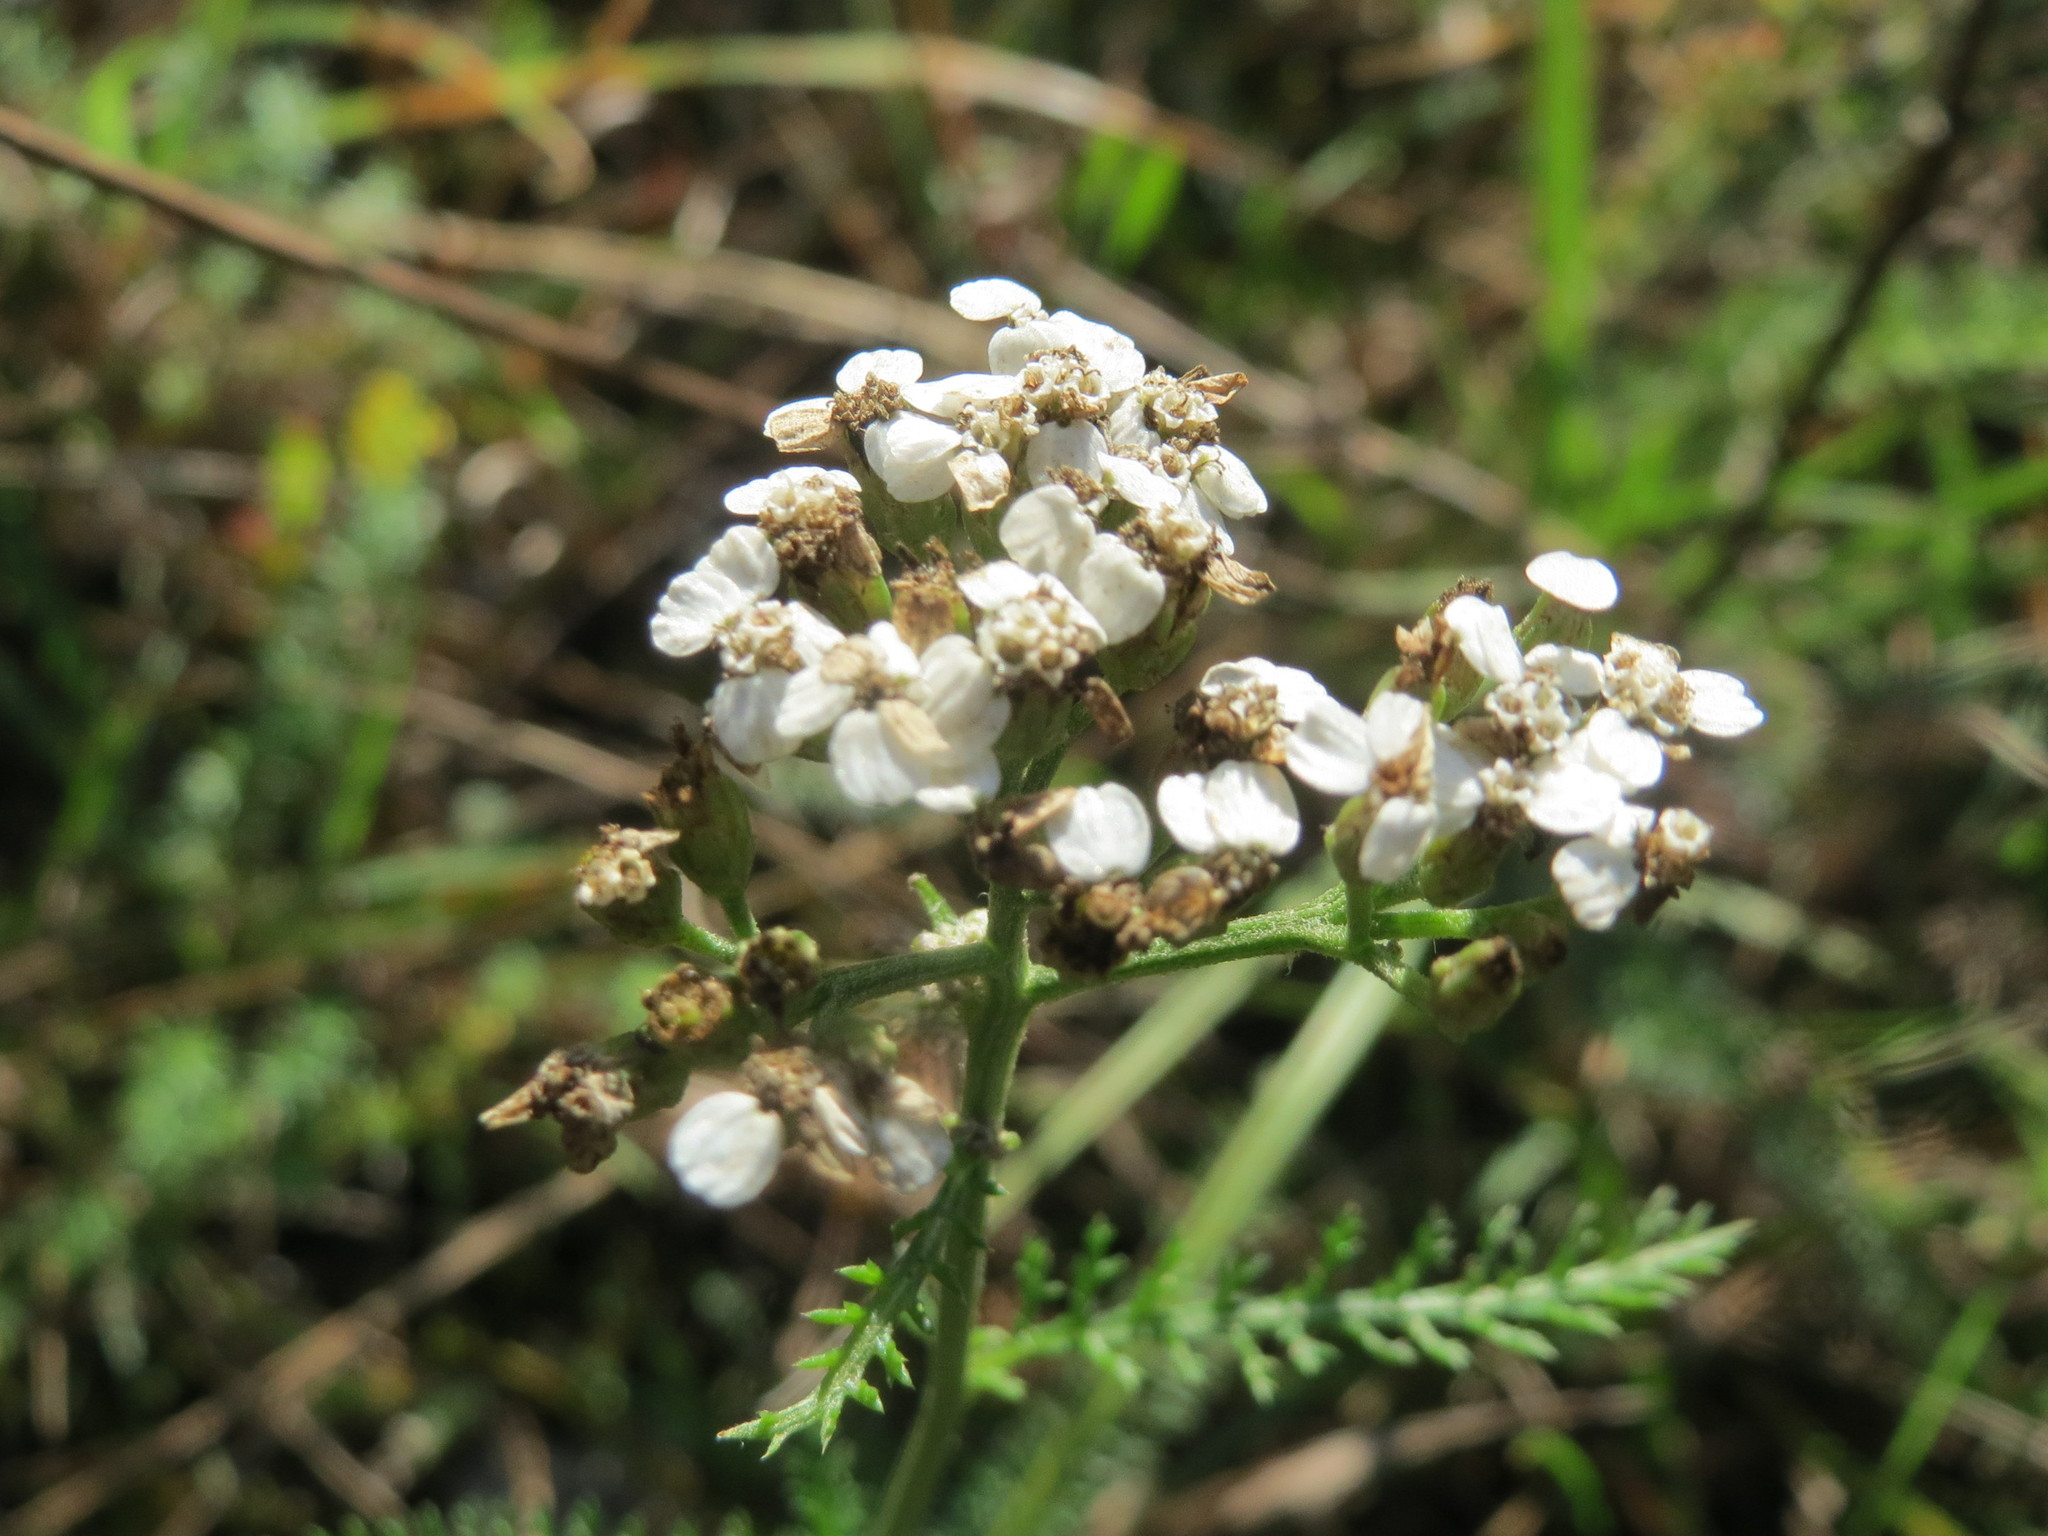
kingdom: Plantae
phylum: Tracheophyta
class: Magnoliopsida
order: Asterales
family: Asteraceae
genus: Achillea
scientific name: Achillea millefolium
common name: Yarrow
